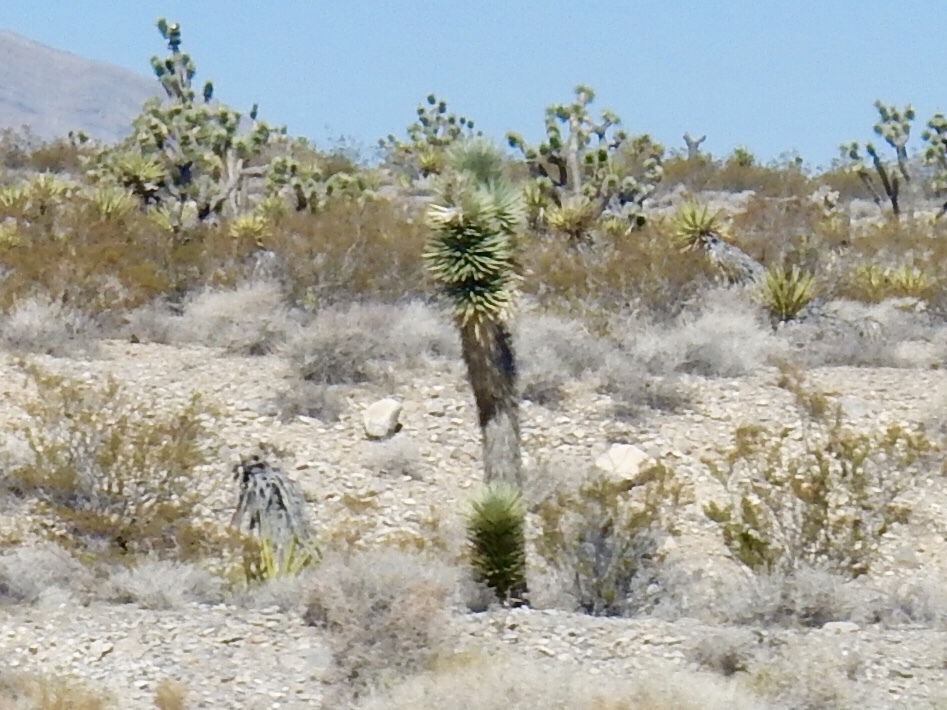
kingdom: Plantae
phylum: Tracheophyta
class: Liliopsida
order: Asparagales
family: Asparagaceae
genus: Yucca
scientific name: Yucca brevifolia
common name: Joshua tree
